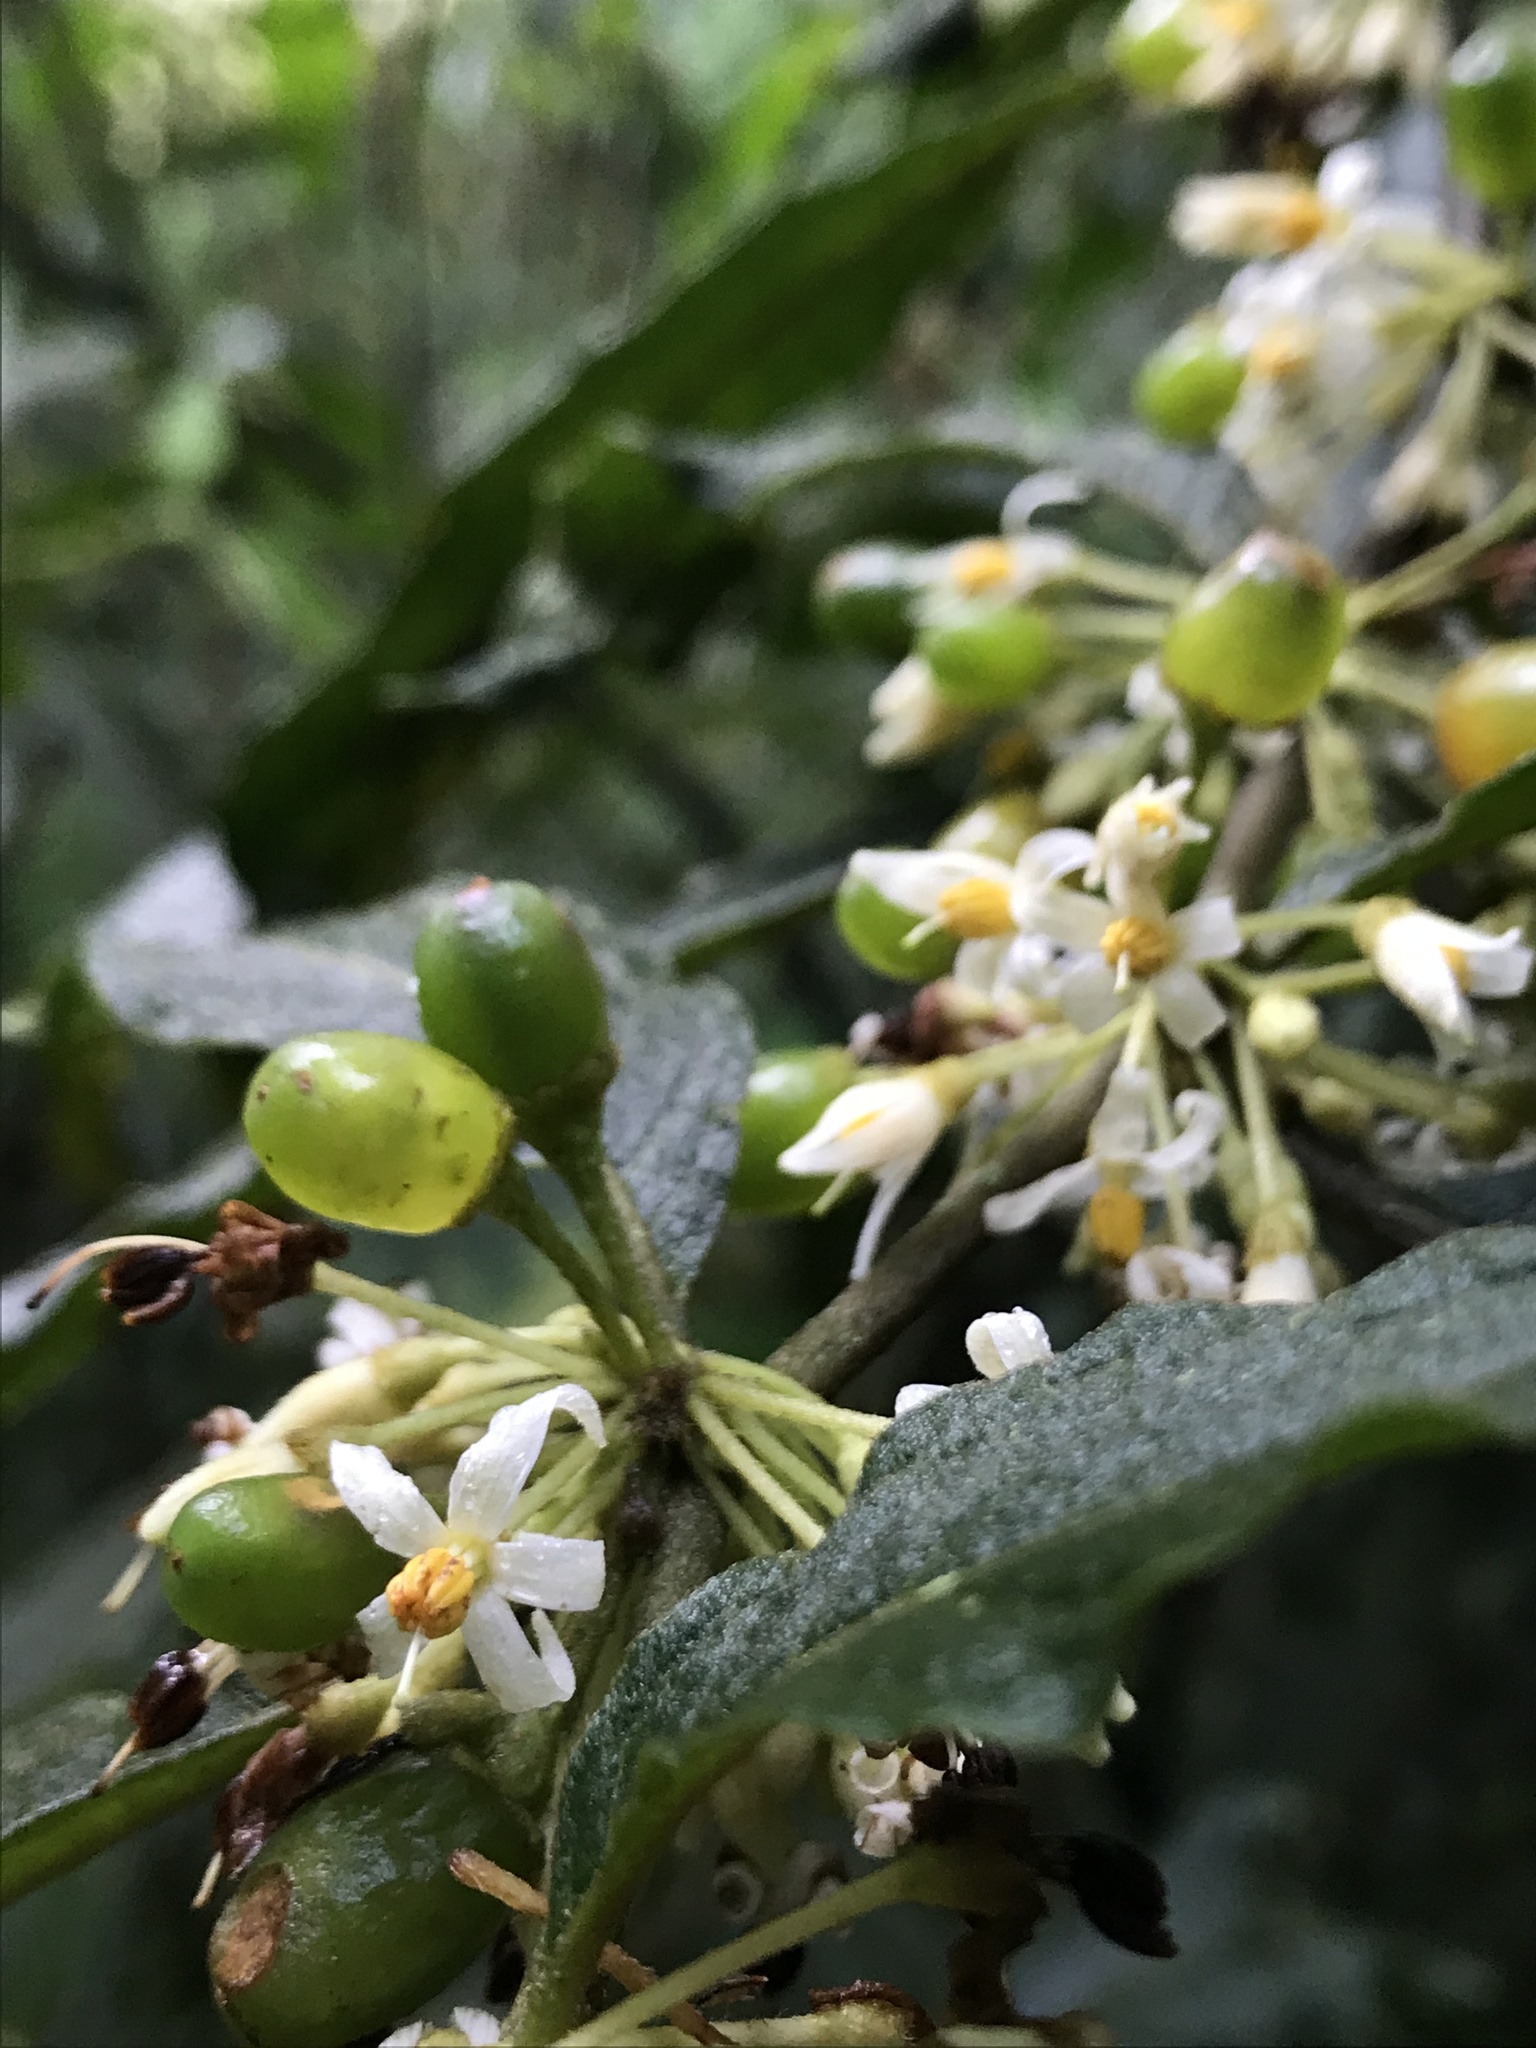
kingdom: Plantae
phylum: Tracheophyta
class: Magnoliopsida
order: Solanales
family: Solanaceae
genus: Lycianthes
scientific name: Lycianthes radiata
